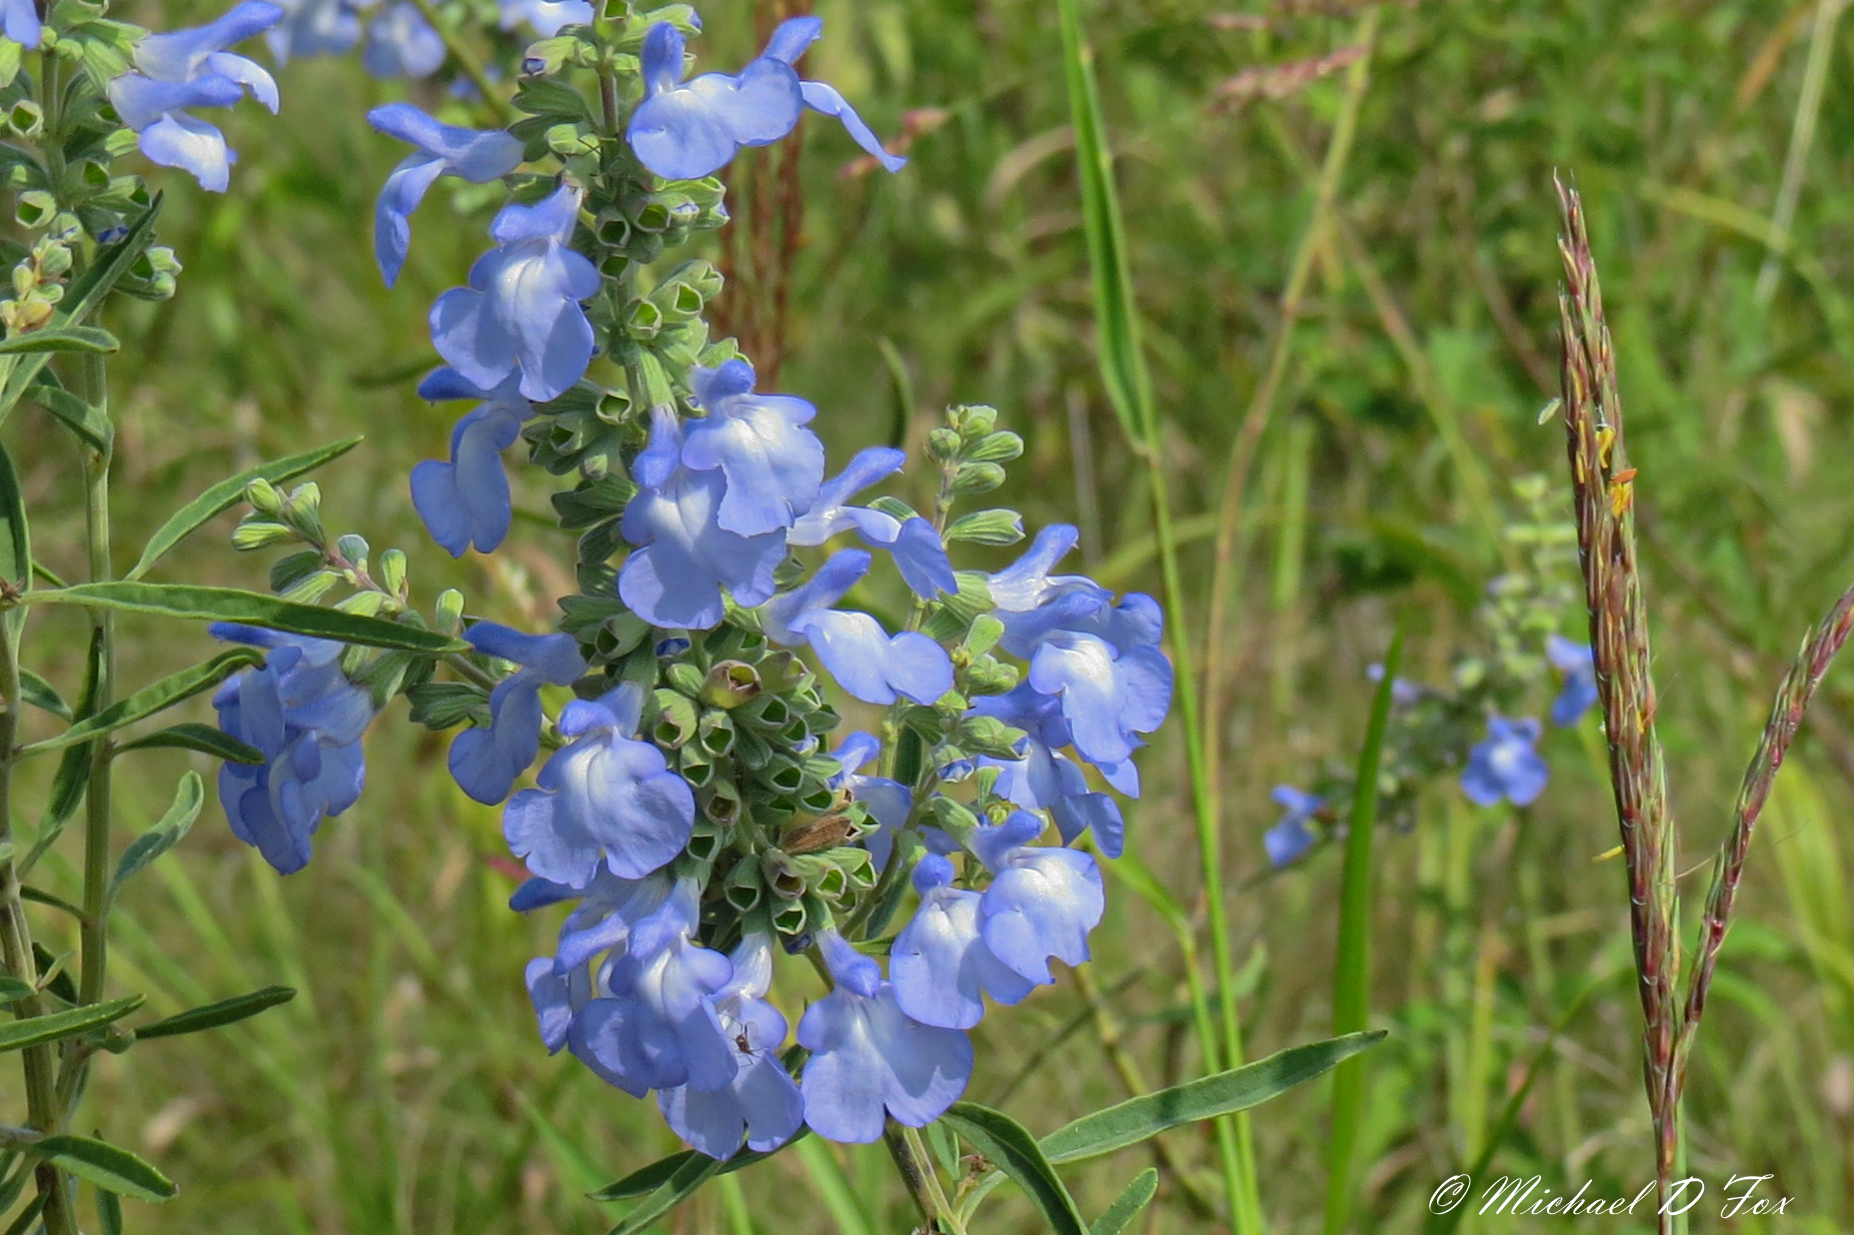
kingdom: Plantae
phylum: Tracheophyta
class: Magnoliopsida
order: Lamiales
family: Lamiaceae
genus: Salvia
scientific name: Salvia azurea
